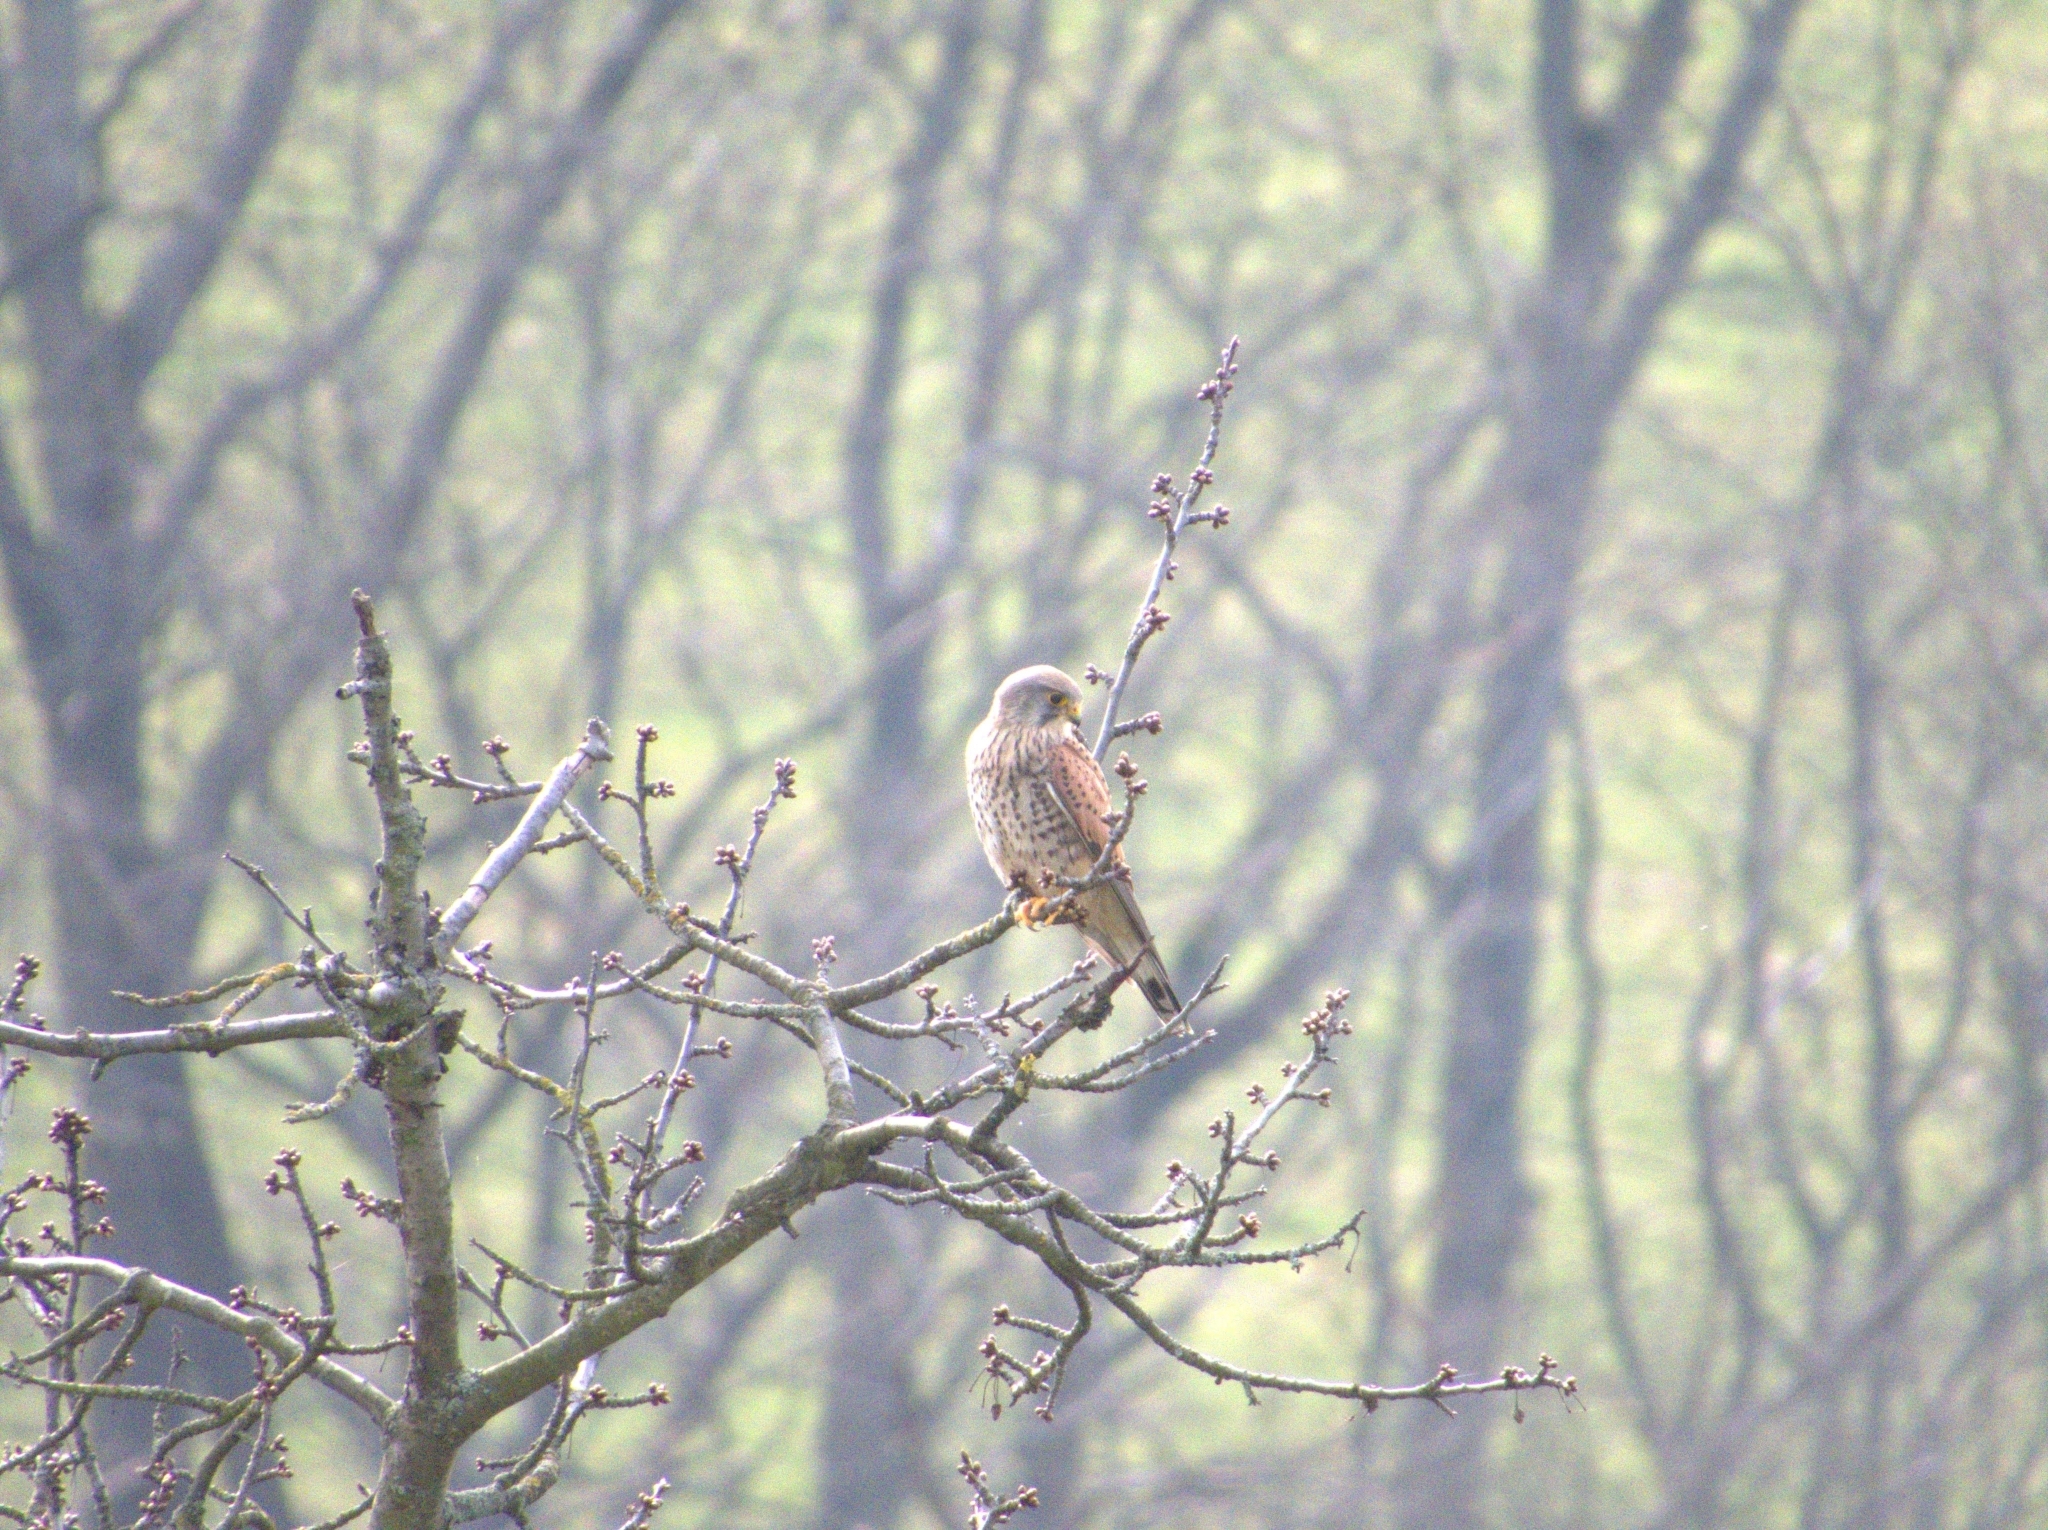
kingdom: Animalia
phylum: Chordata
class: Aves
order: Falconiformes
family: Falconidae
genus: Falco
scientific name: Falco tinnunculus
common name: Common kestrel
